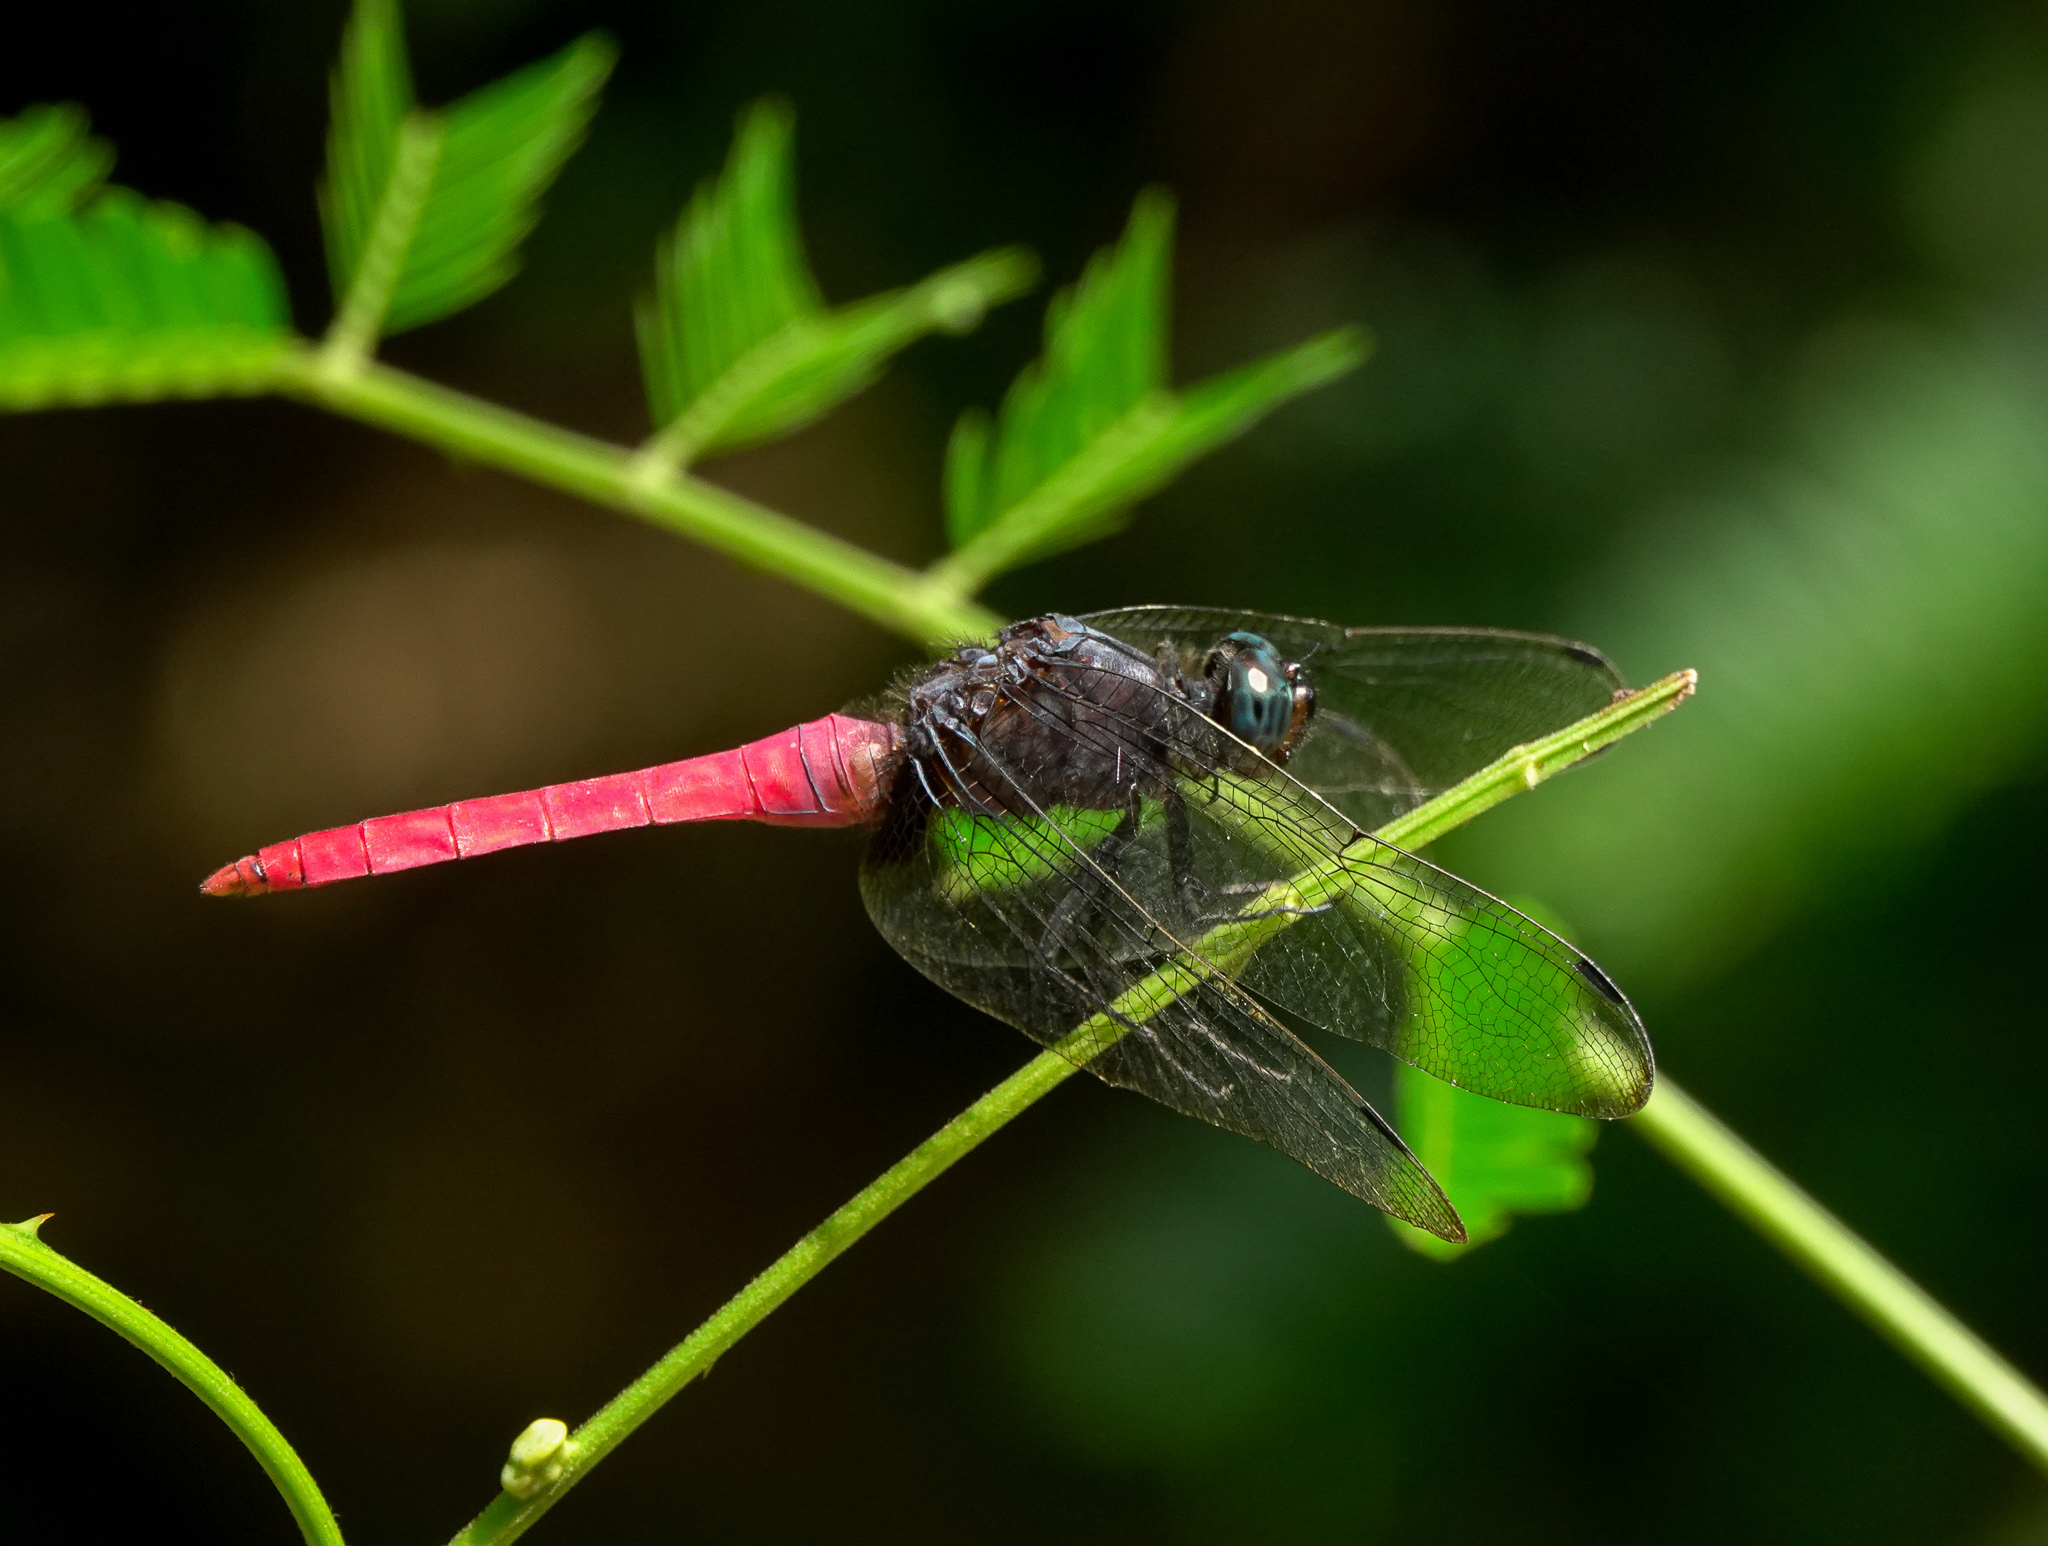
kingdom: Animalia
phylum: Arthropoda
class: Insecta
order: Odonata
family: Libellulidae
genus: Orthetrum
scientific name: Orthetrum pruinosum
